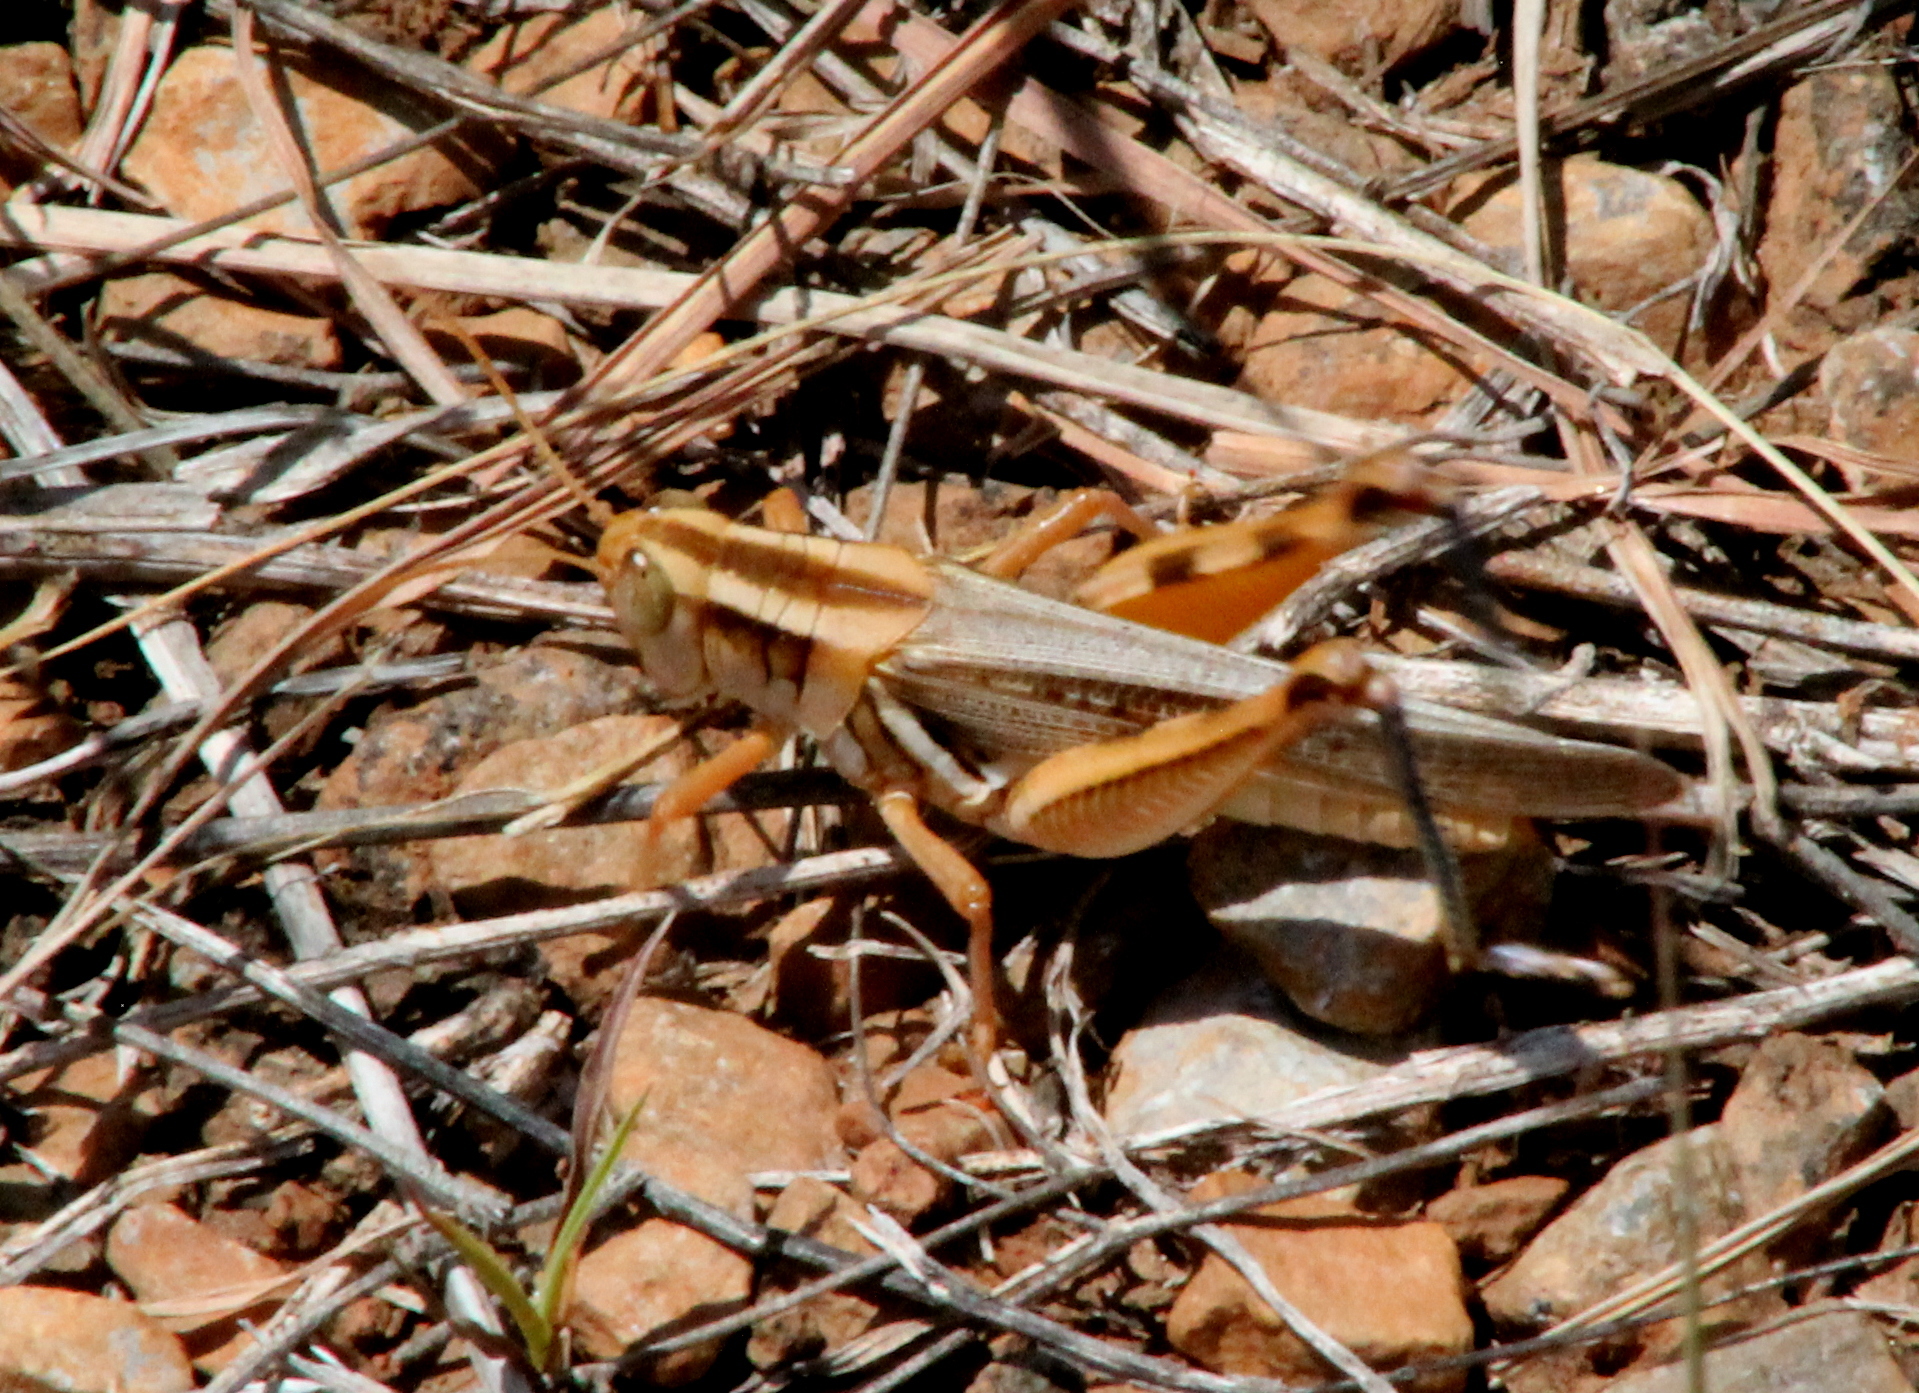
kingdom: Animalia
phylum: Arthropoda
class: Insecta
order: Orthoptera
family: Acrididae
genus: Melanoplus
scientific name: Melanoplus packardii
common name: Packard's grasshopper
